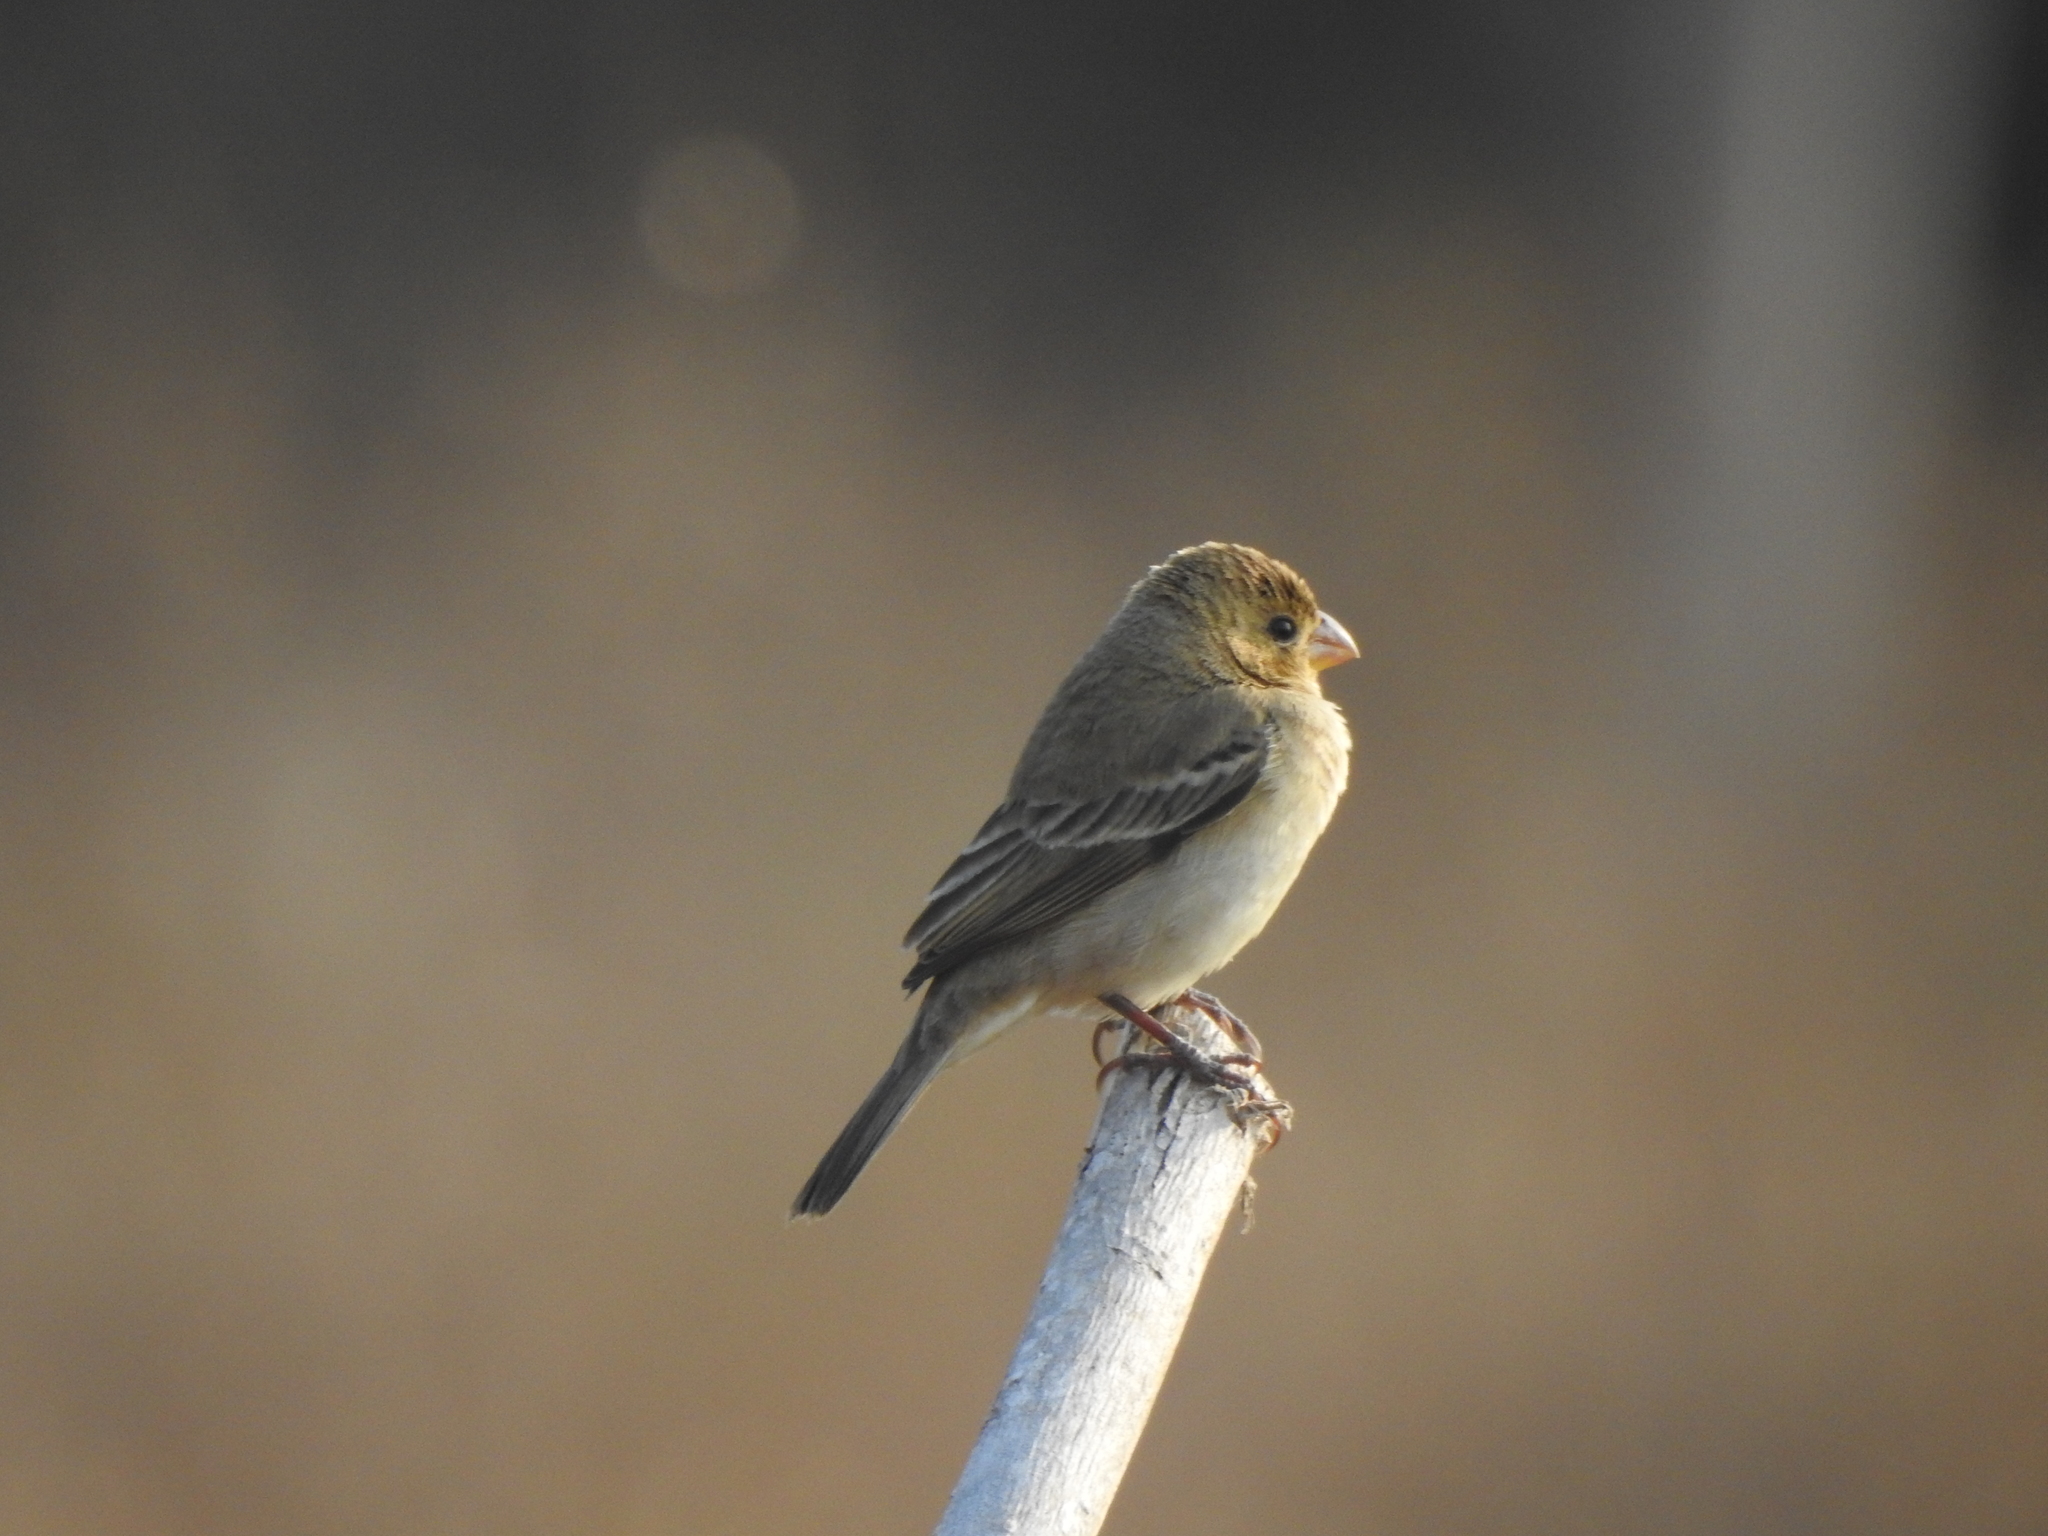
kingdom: Animalia
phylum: Chordata
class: Aves
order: Passeriformes
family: Thraupidae
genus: Sporophila
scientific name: Sporophila torqueola
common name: White-collared seedeater
